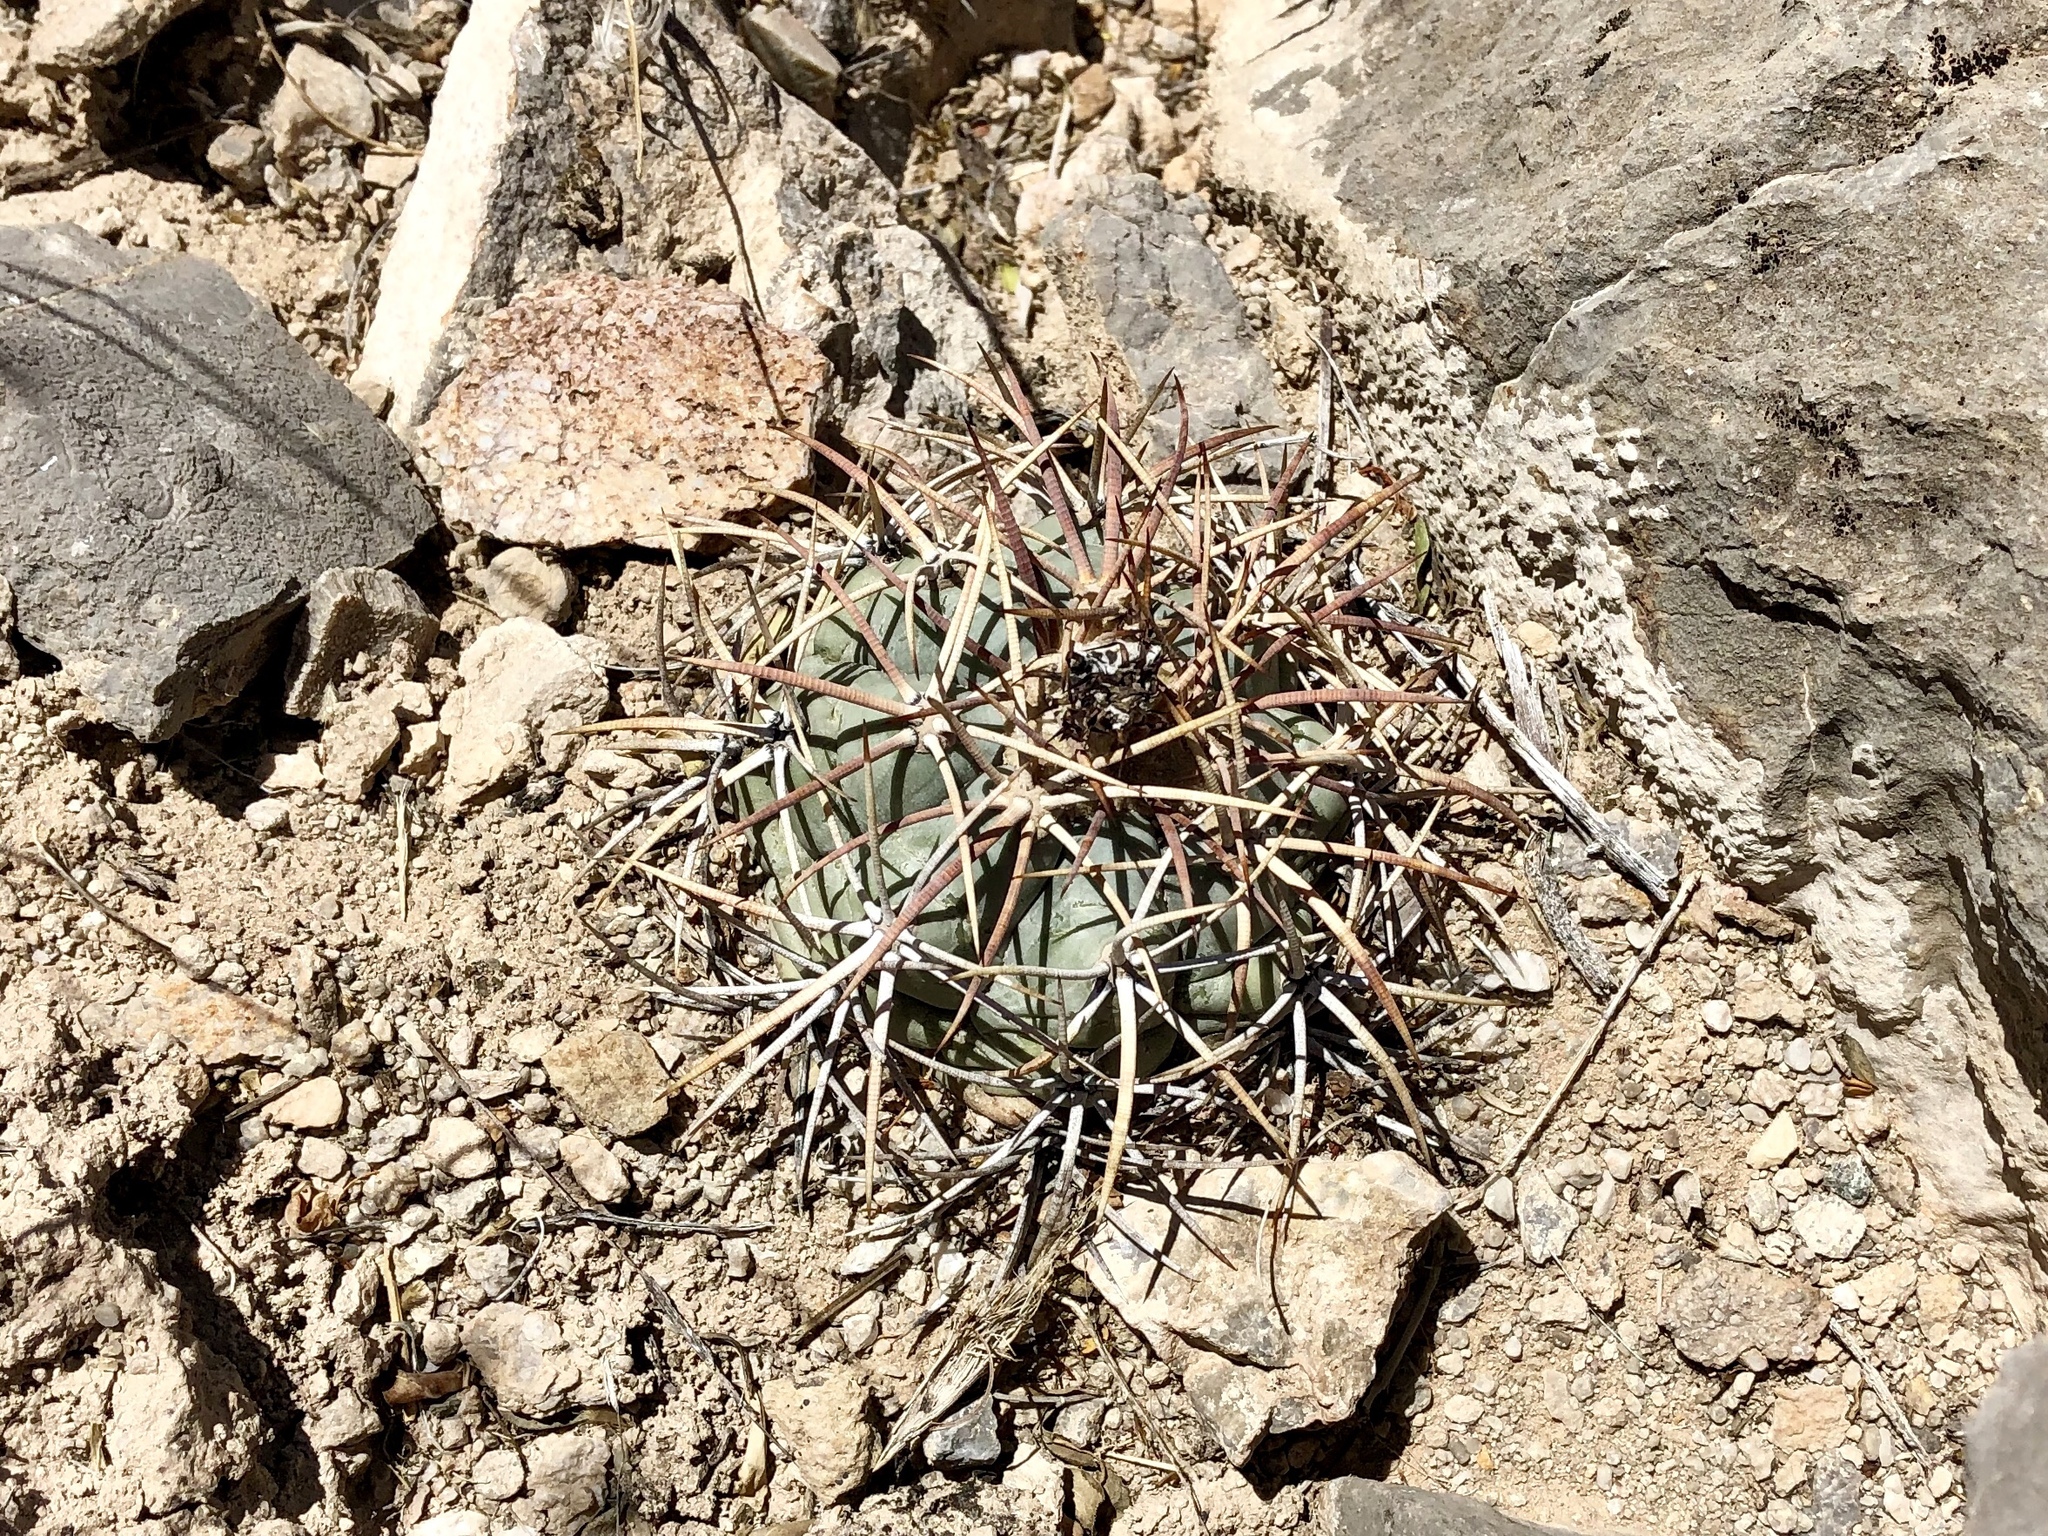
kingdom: Plantae
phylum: Tracheophyta
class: Magnoliopsida
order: Caryophyllales
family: Cactaceae
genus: Echinocactus
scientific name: Echinocactus horizonthalonius
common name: Devilshead
